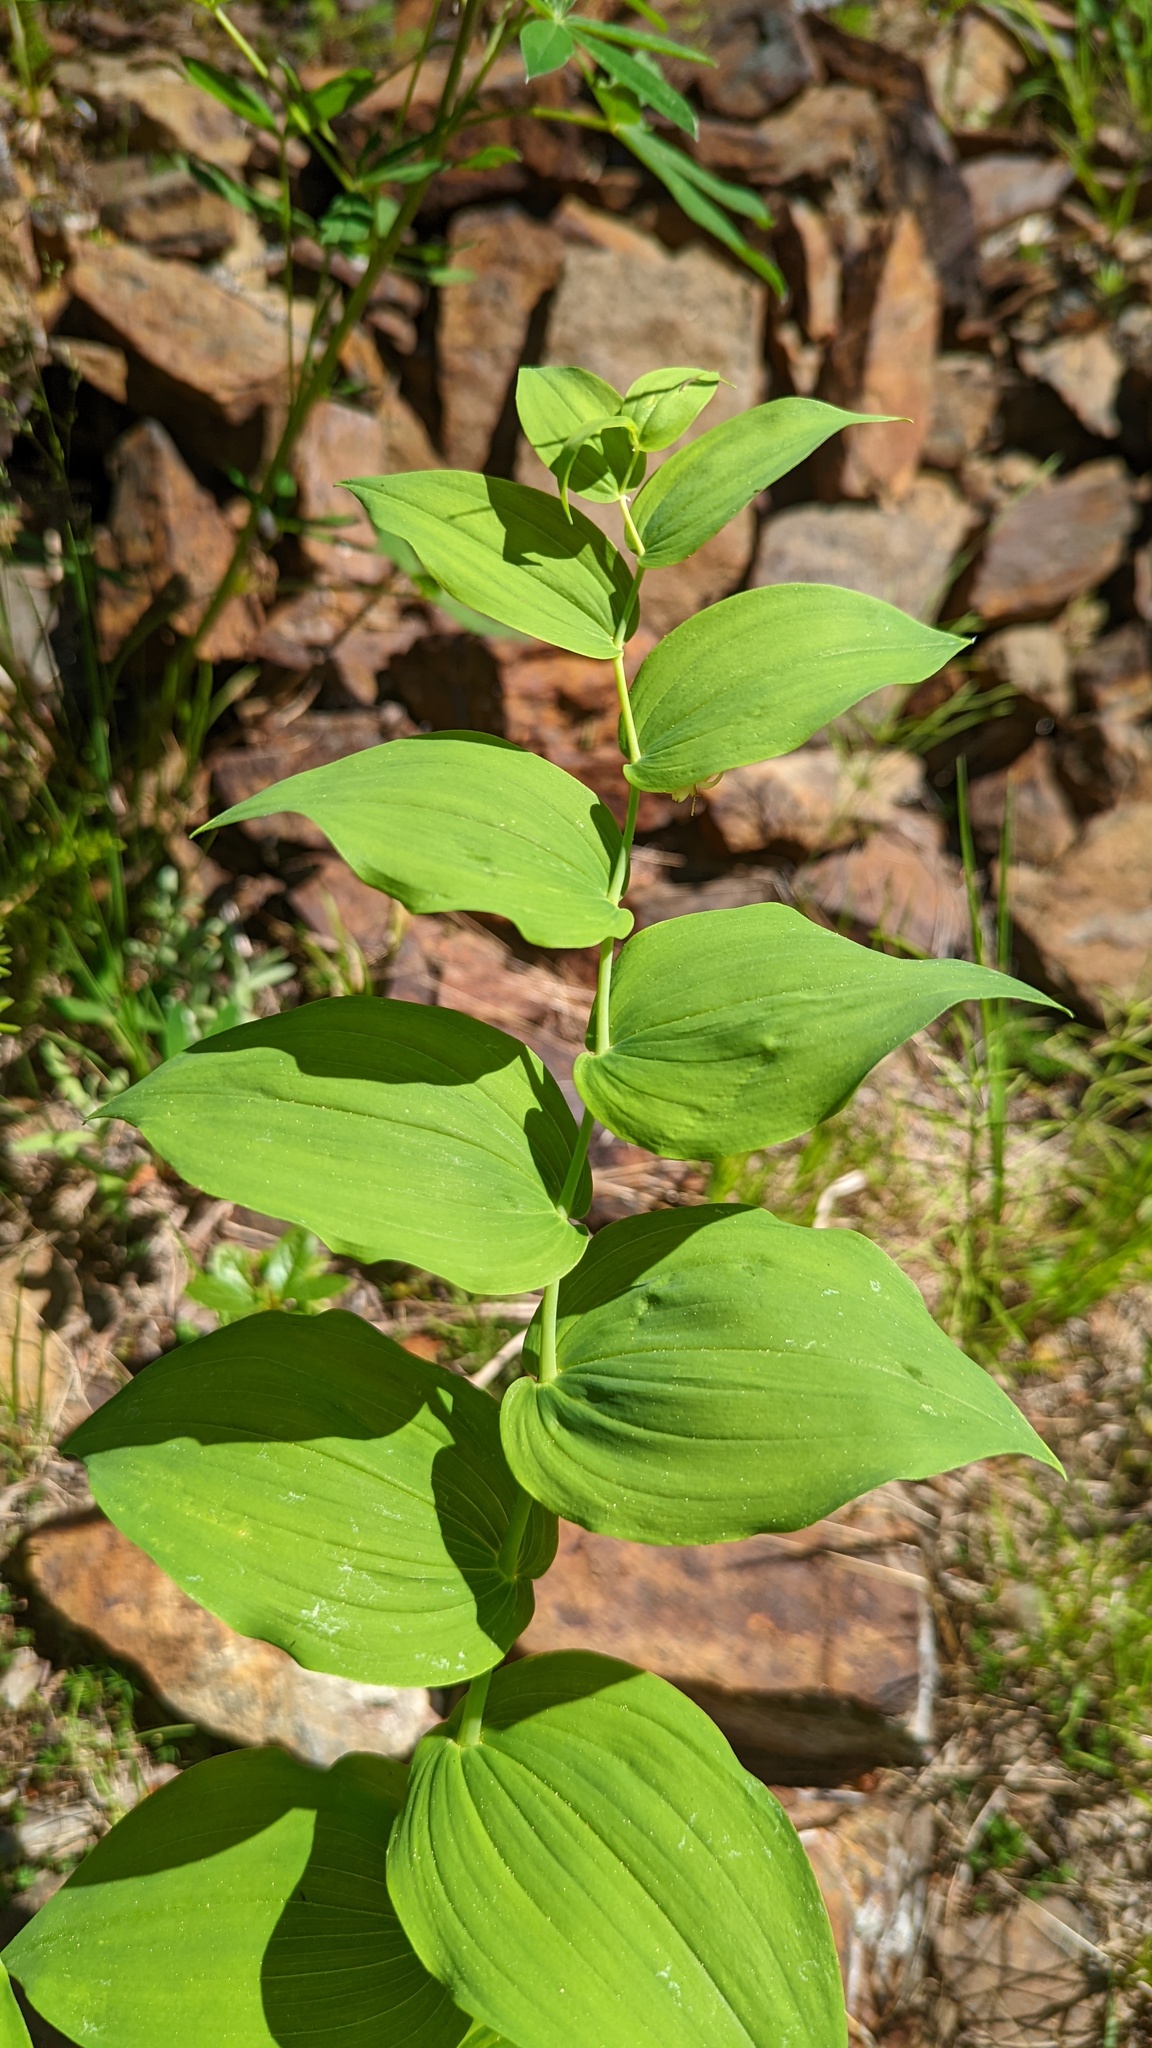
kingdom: Plantae
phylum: Tracheophyta
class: Liliopsida
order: Liliales
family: Liliaceae
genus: Streptopus
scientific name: Streptopus amplexifolius
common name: Clasp twisted stalk
